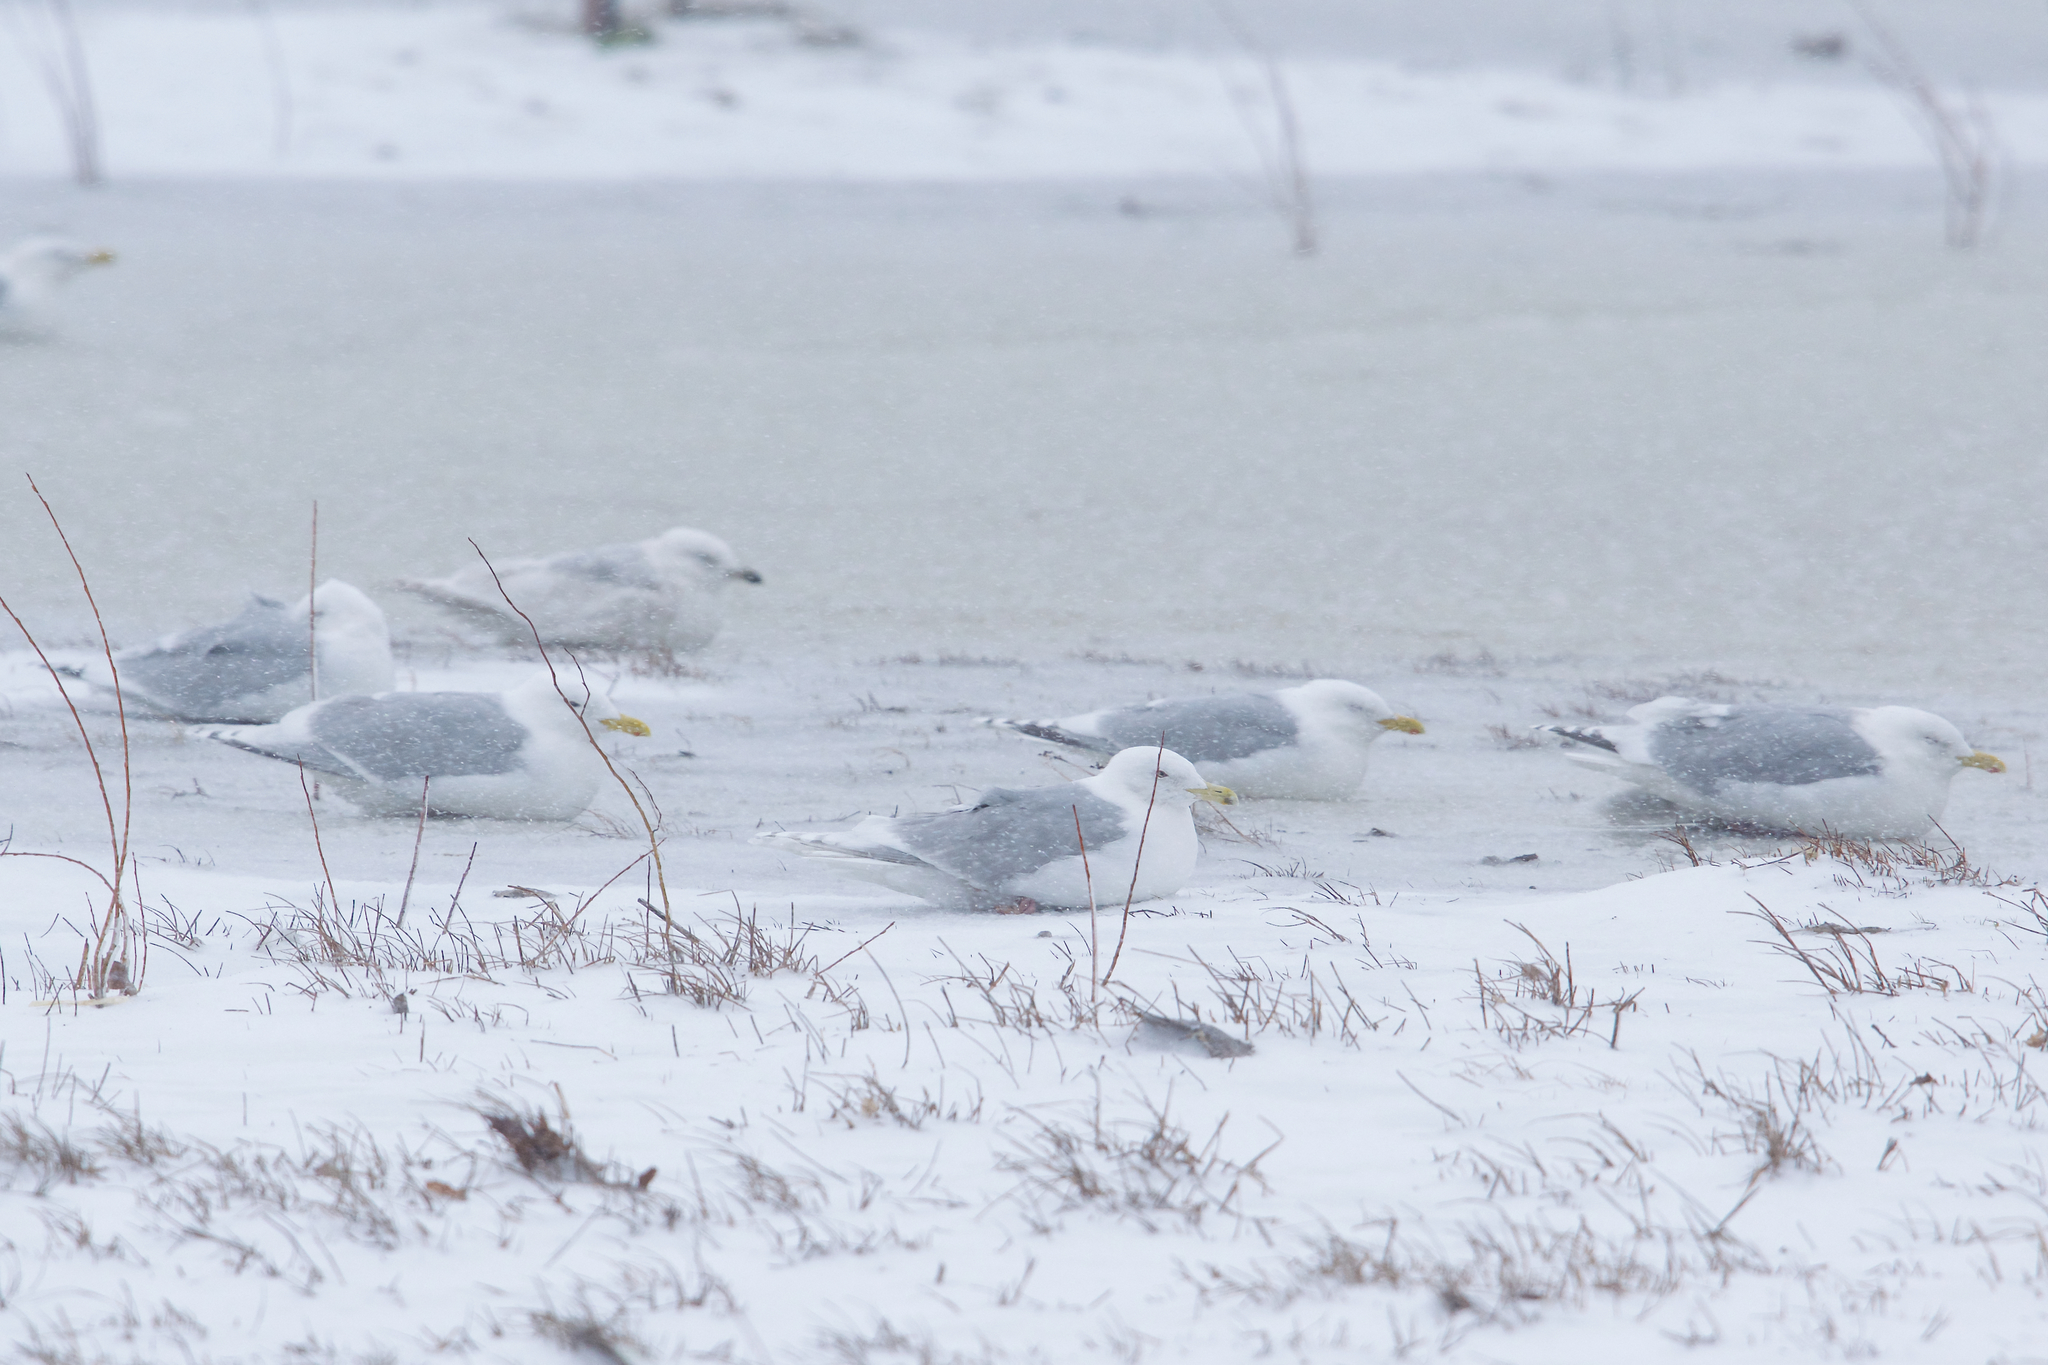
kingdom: Animalia
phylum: Chordata
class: Aves
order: Charadriiformes
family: Laridae
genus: Larus
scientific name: Larus glaucoides
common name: Iceland gull
